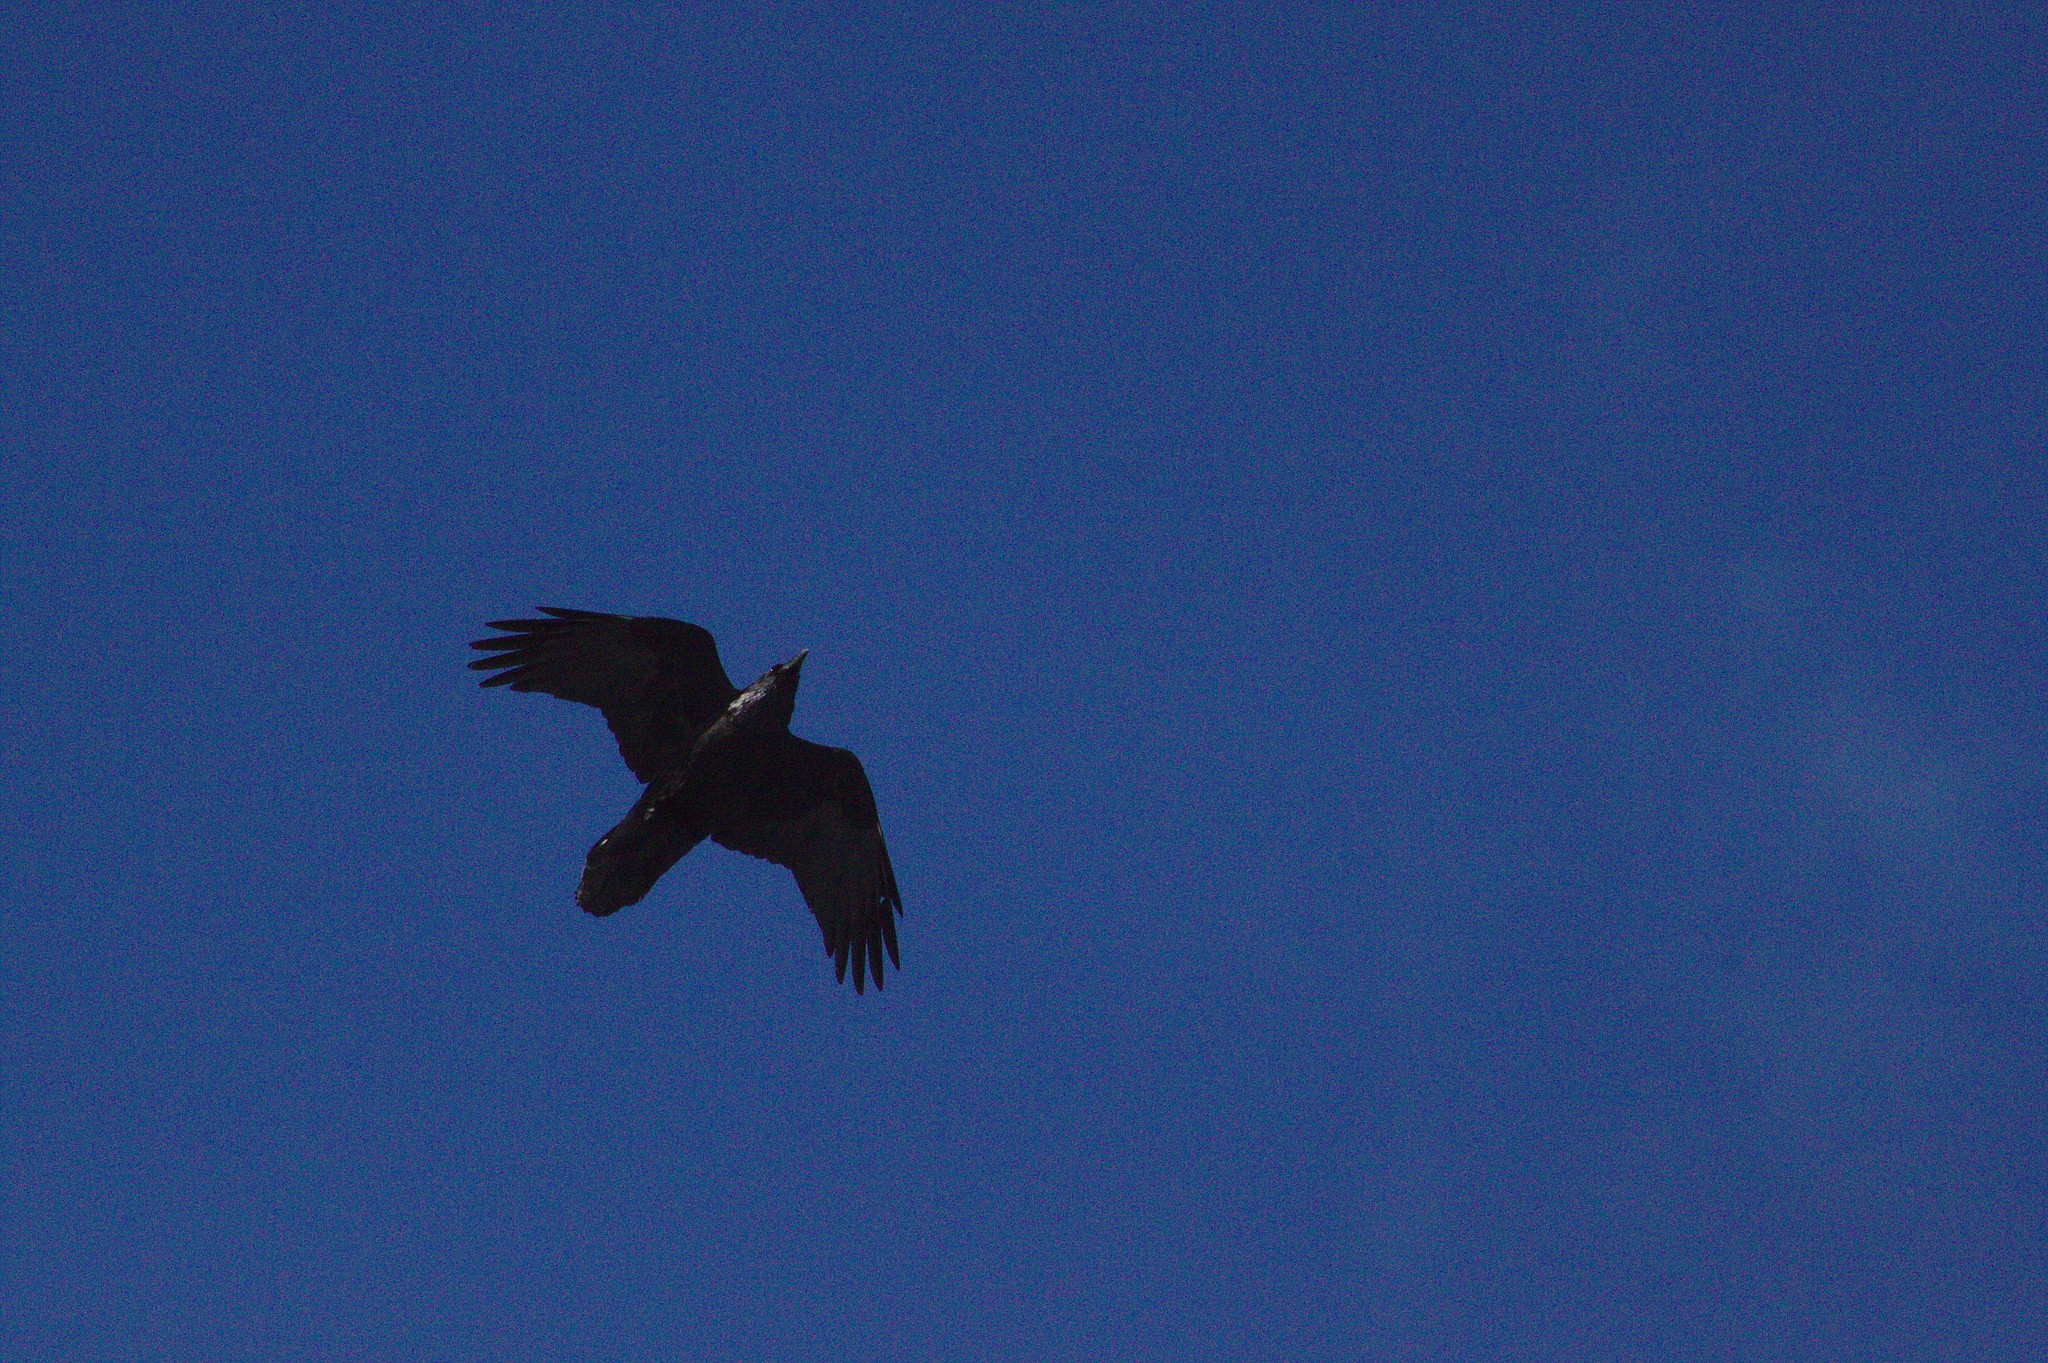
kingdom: Animalia
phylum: Chordata
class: Aves
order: Passeriformes
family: Corvidae
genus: Corvus
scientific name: Corvus corax
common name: Common raven
